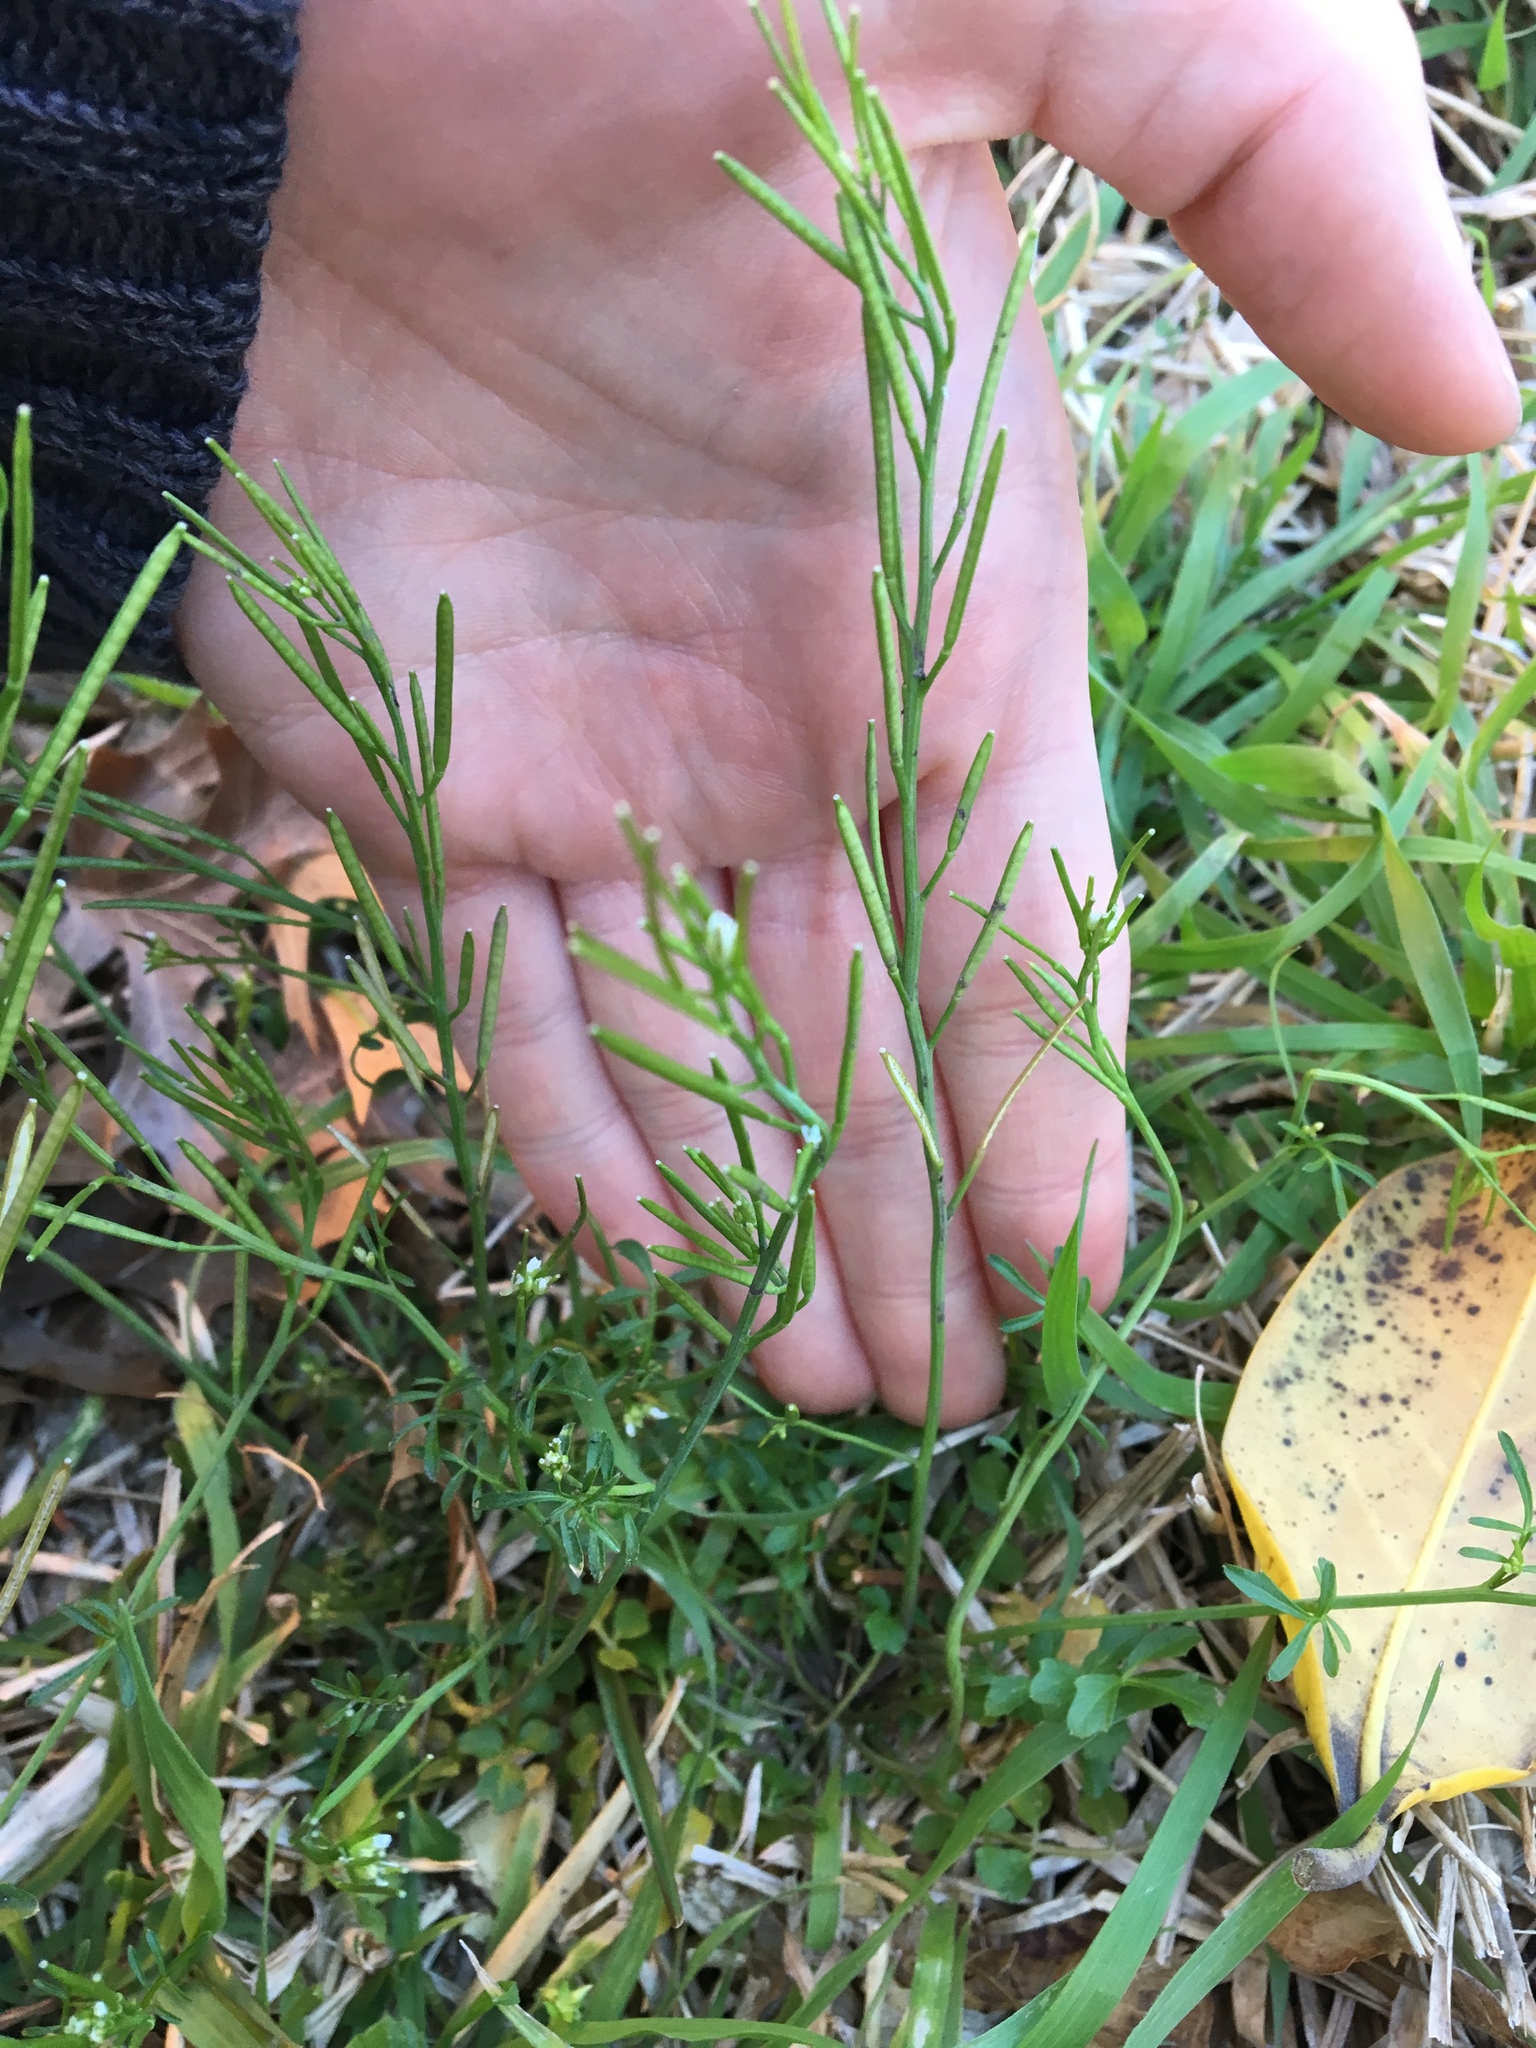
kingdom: Plantae
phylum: Tracheophyta
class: Magnoliopsida
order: Brassicales
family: Brassicaceae
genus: Cardamine
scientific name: Cardamine hirsuta
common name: Hairy bittercress
